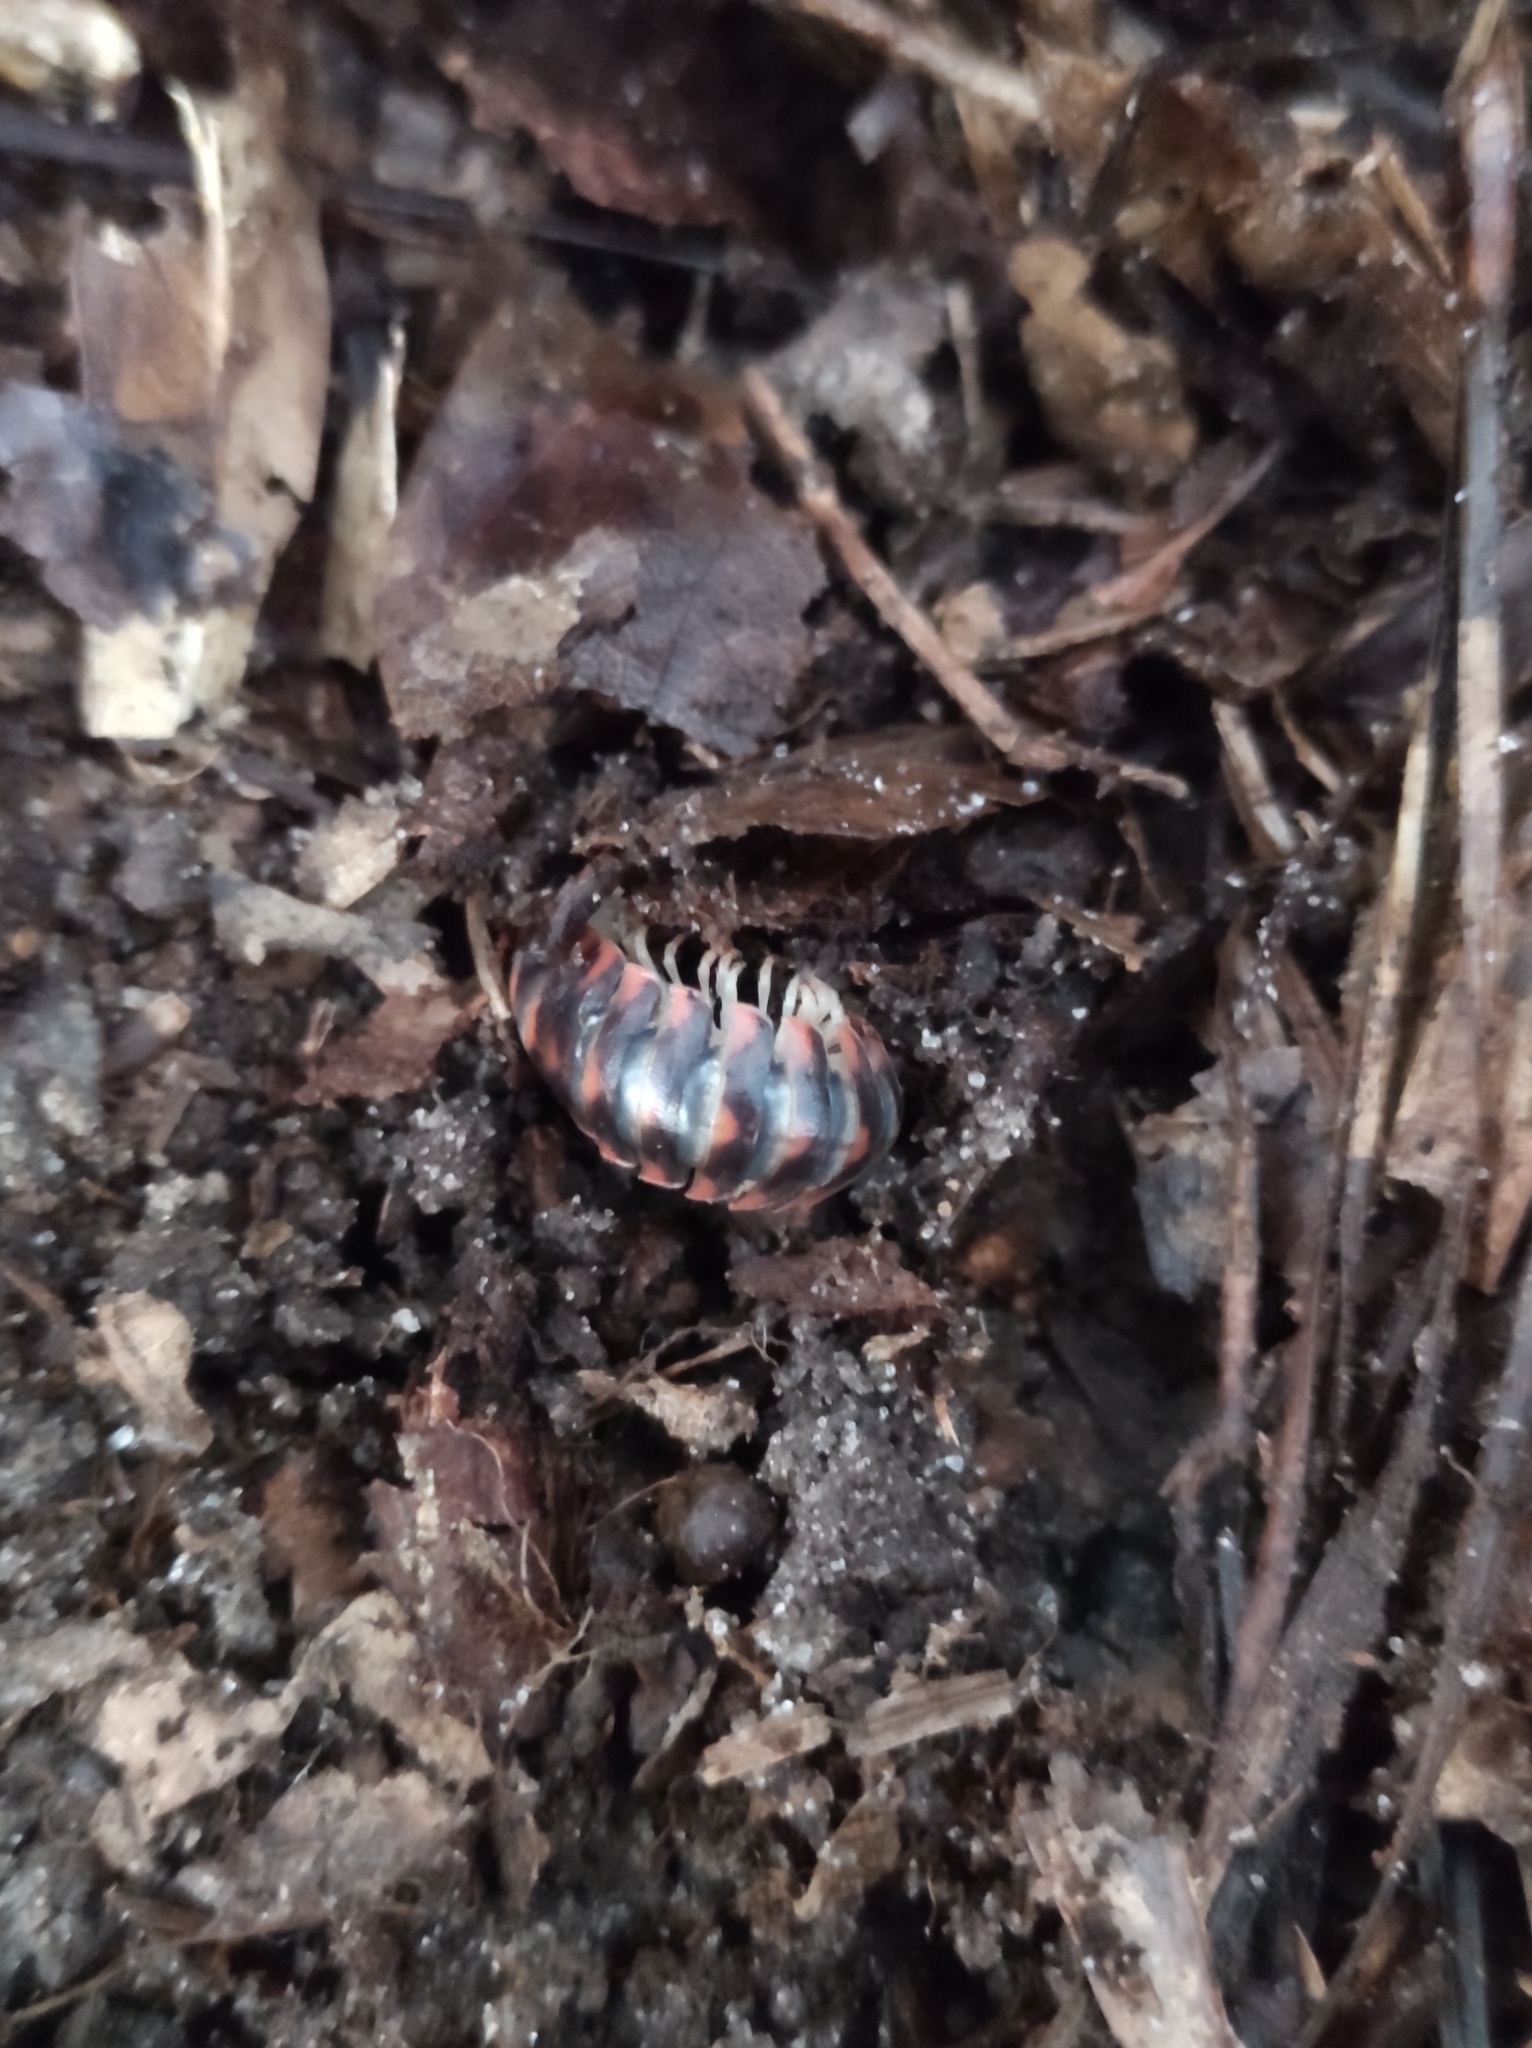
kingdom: Animalia
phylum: Arthropoda
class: Diplopoda
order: Polydesmida
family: Xystodesmidae
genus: Cherokia
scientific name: Cherokia georgiana
